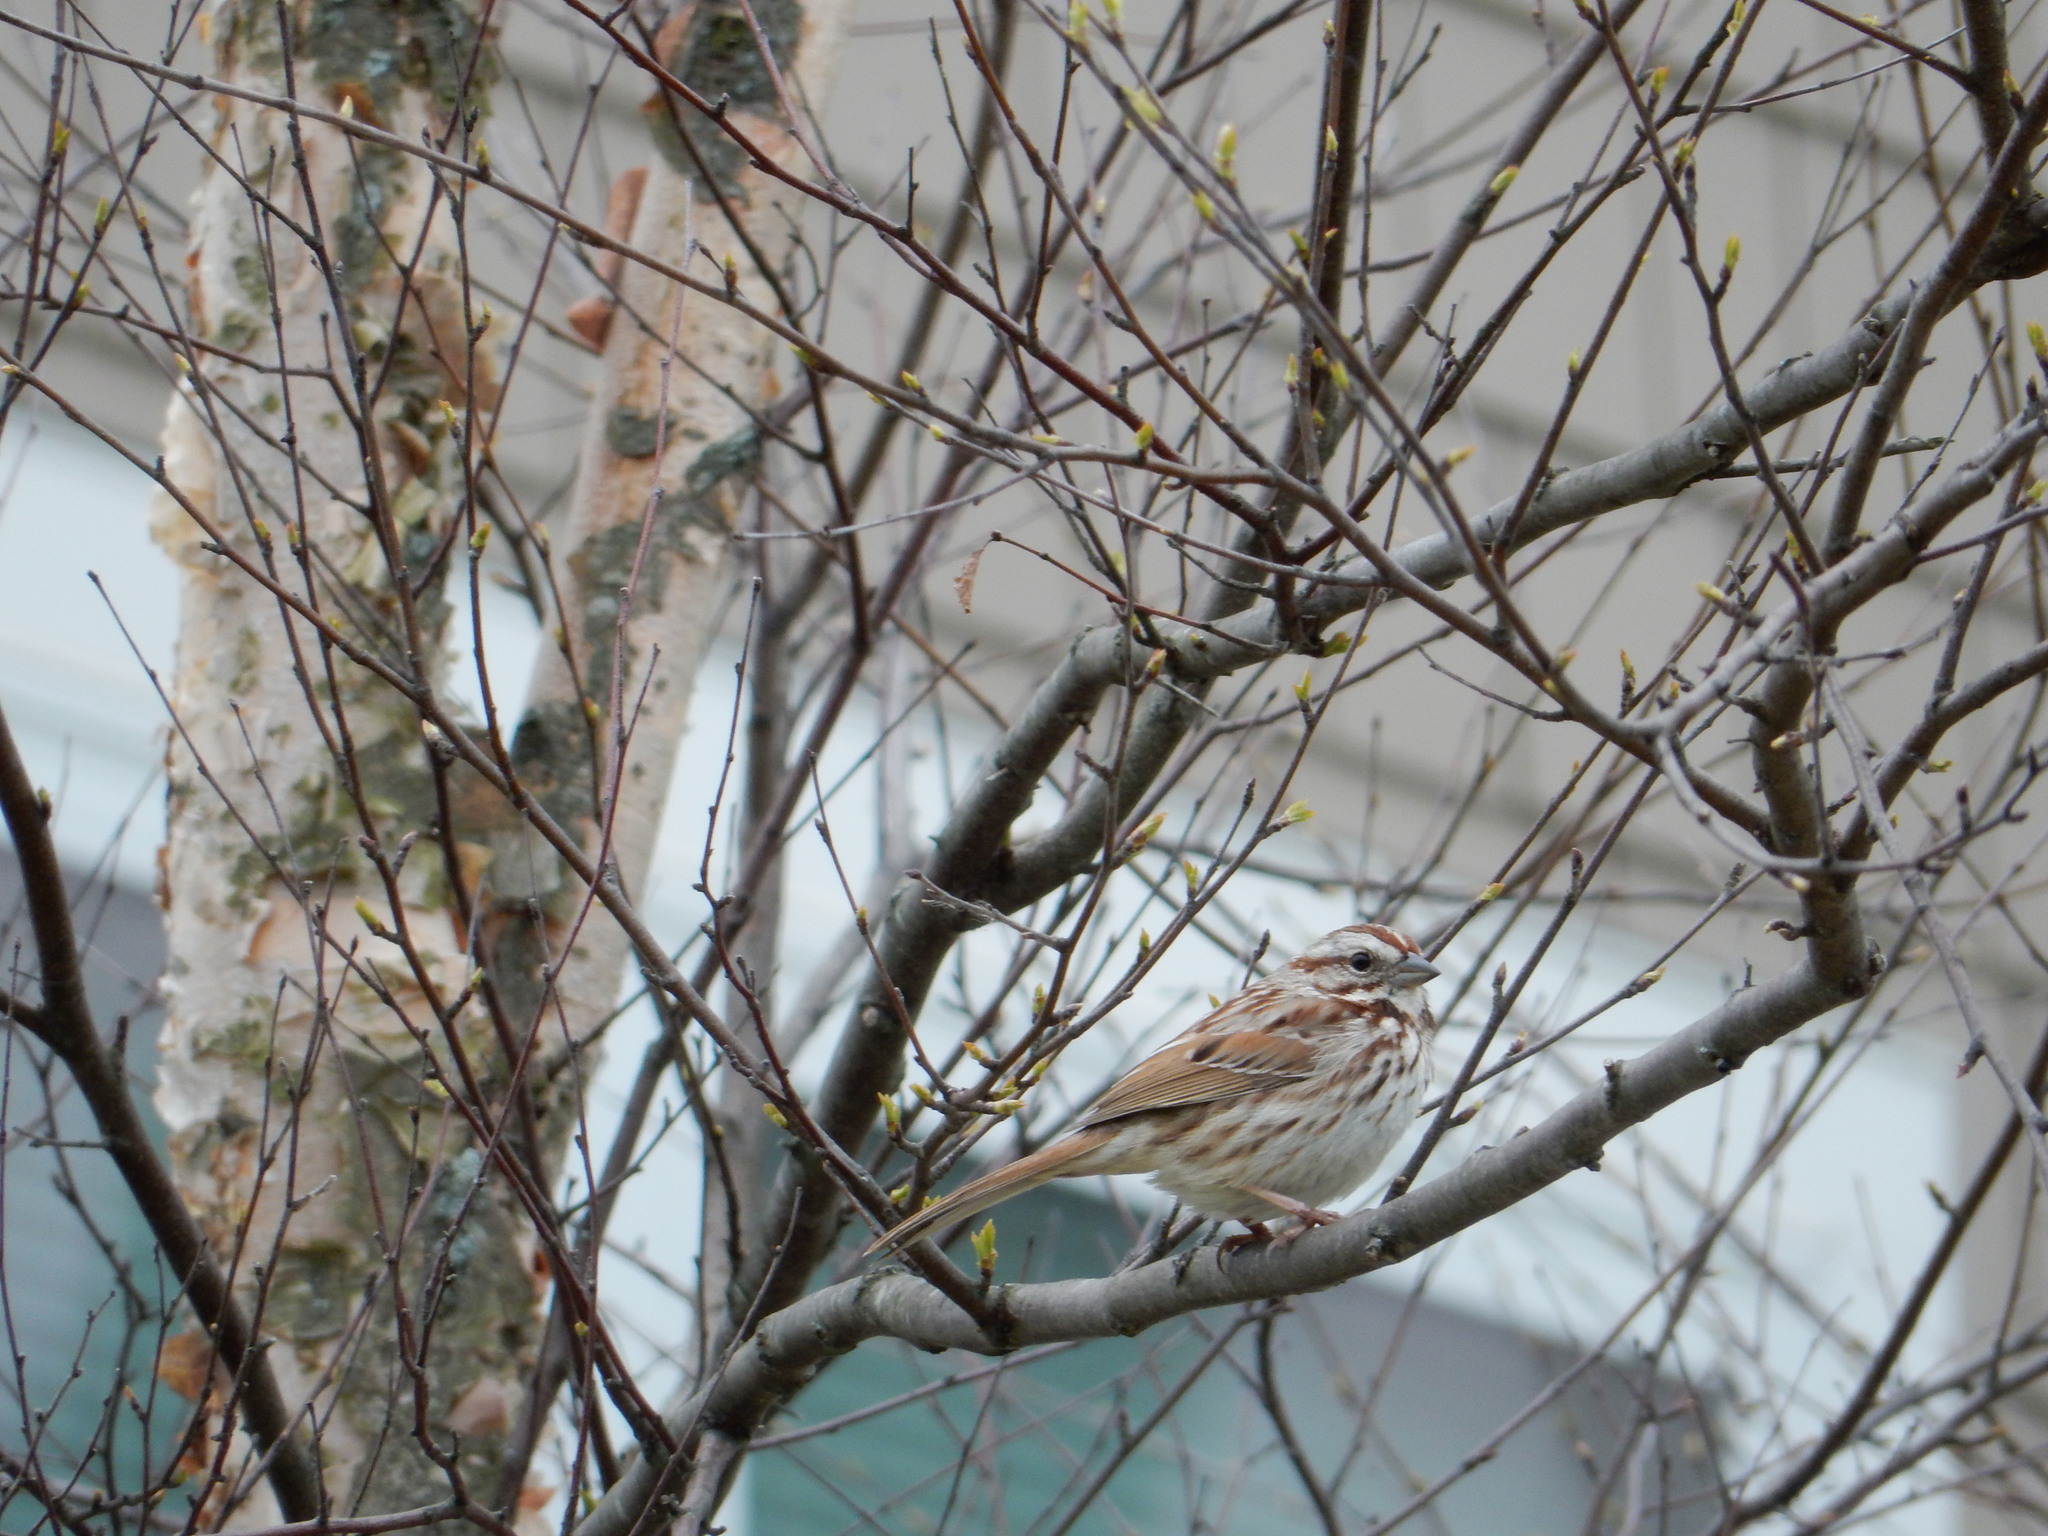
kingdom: Animalia
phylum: Chordata
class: Aves
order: Passeriformes
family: Passerellidae
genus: Melospiza
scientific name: Melospiza melodia
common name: Song sparrow
